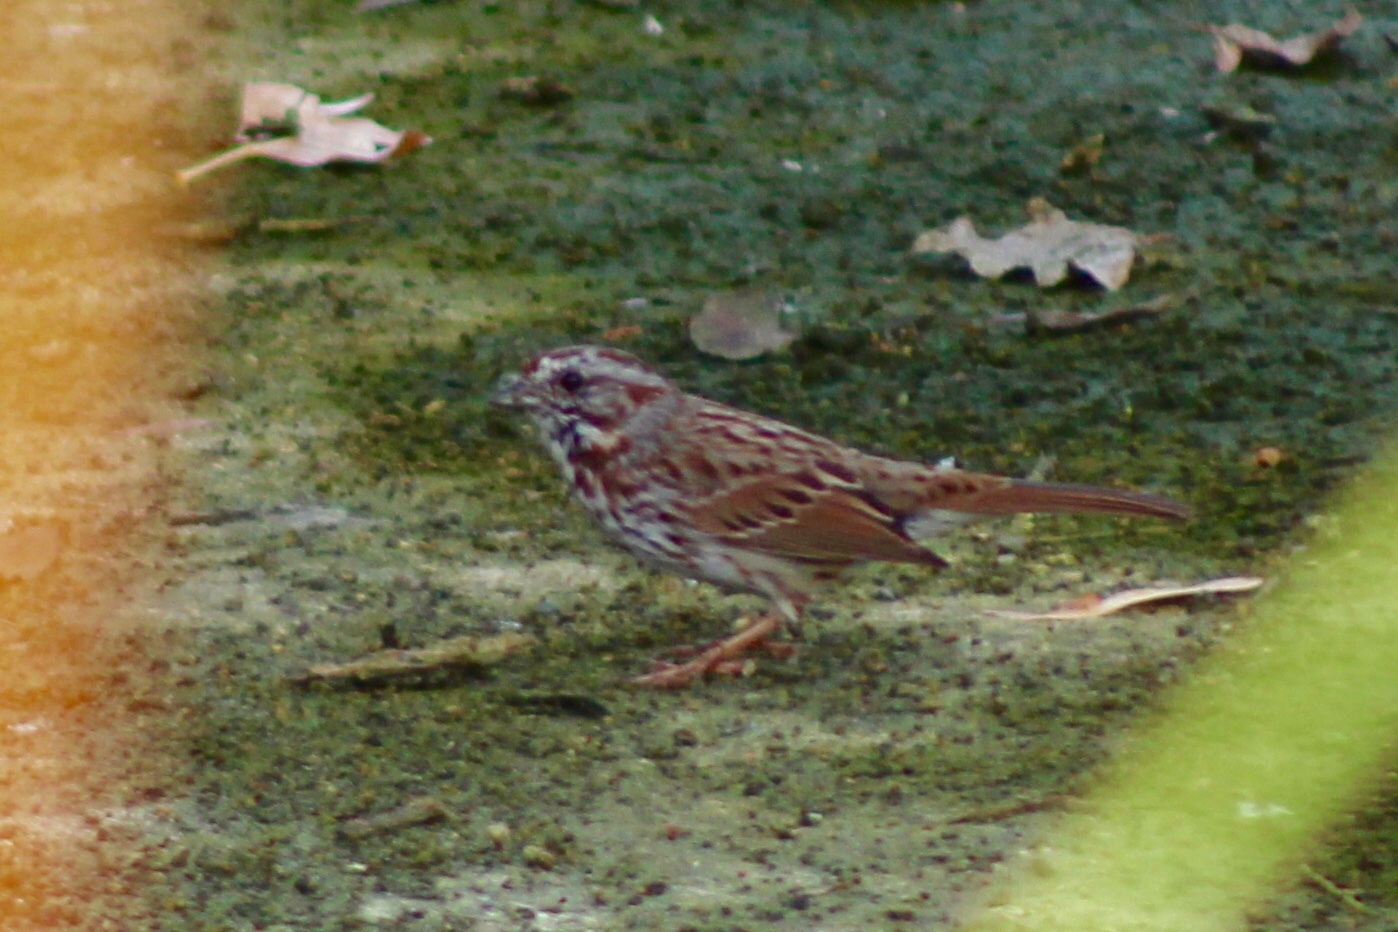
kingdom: Animalia
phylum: Chordata
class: Aves
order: Passeriformes
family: Passerellidae
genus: Melospiza
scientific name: Melospiza melodia
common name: Song sparrow
